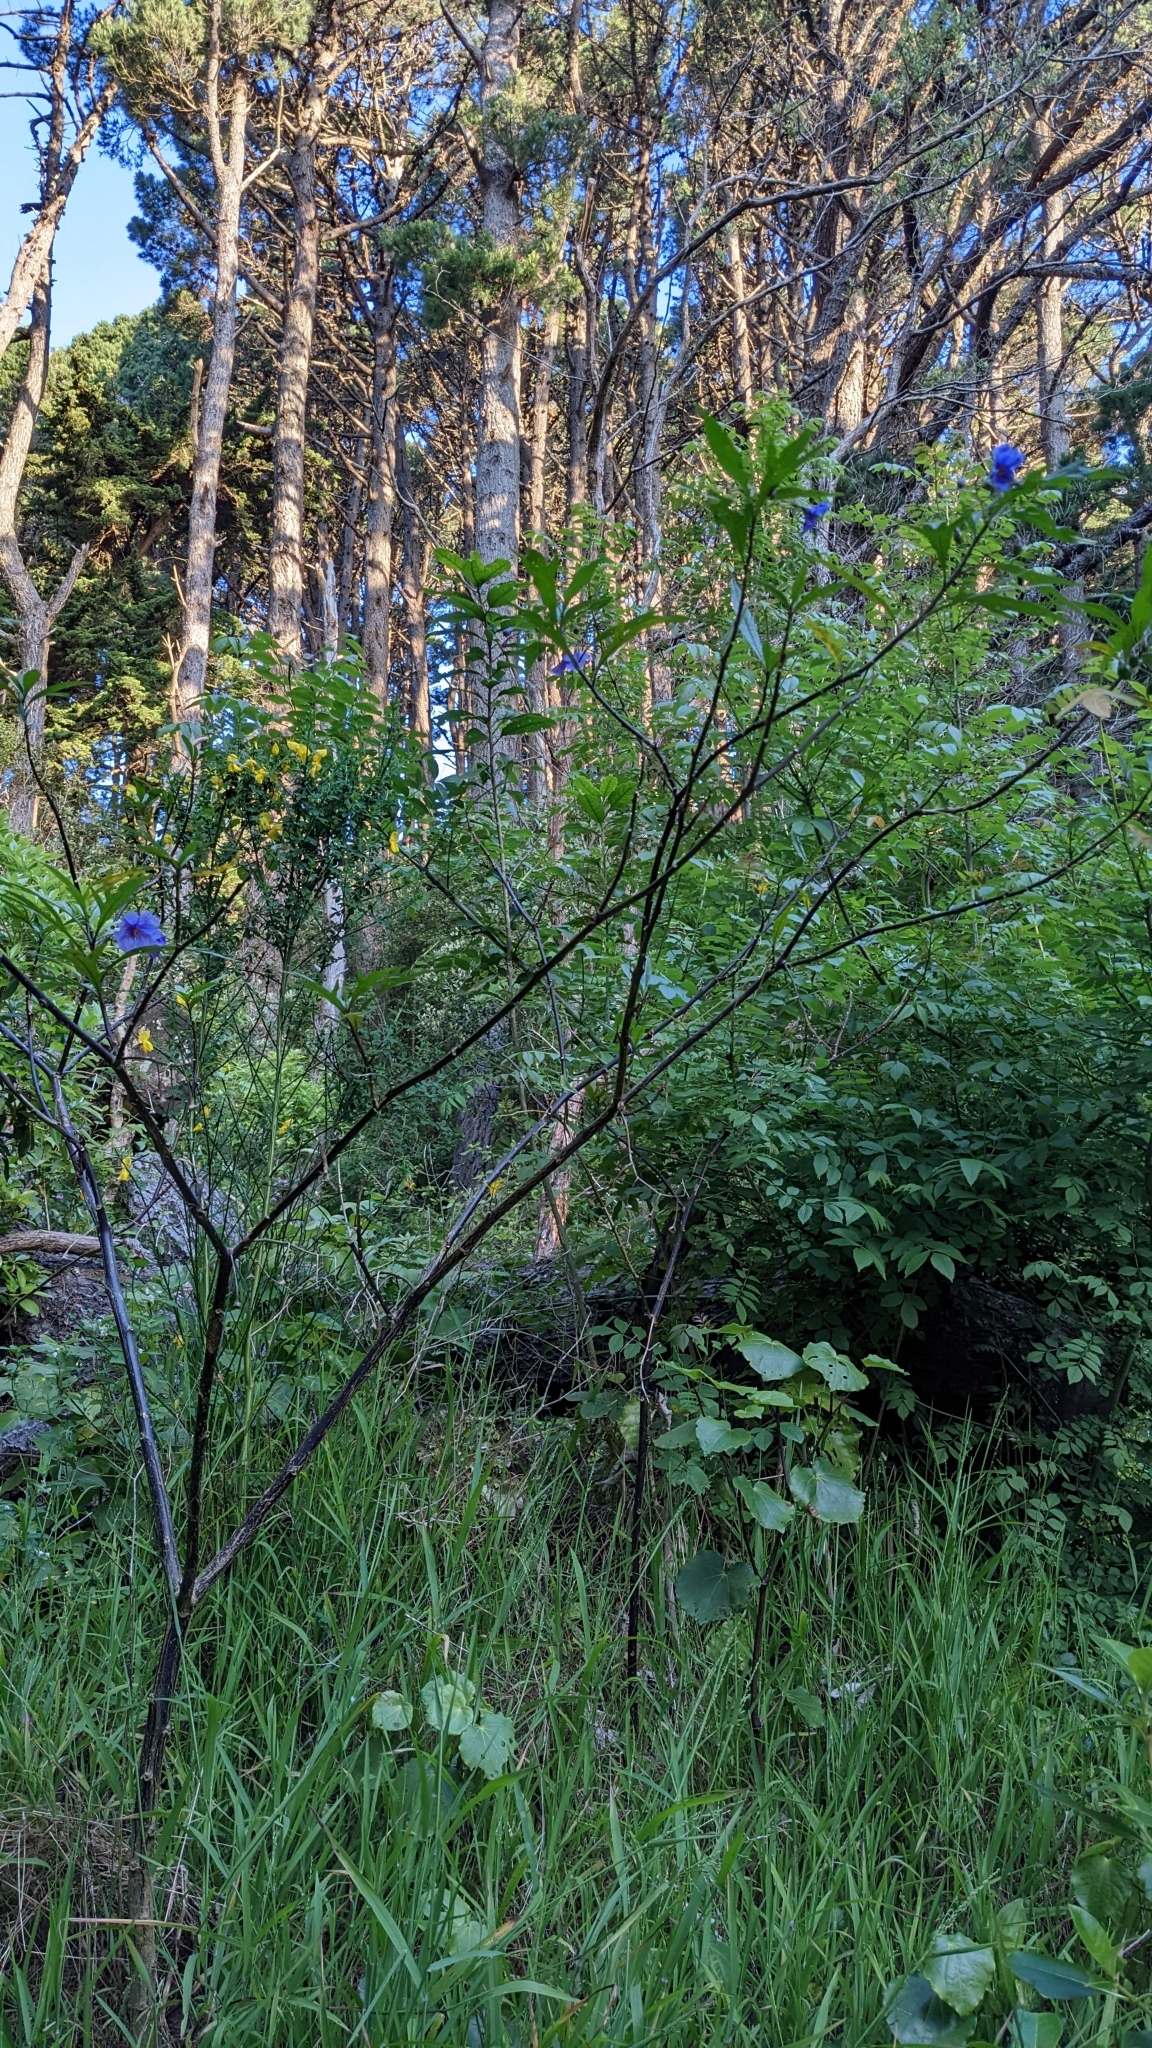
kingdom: Plantae
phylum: Tracheophyta
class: Magnoliopsida
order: Solanales
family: Solanaceae
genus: Solanum
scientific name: Solanum laciniatum
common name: Kangaroo-apple
